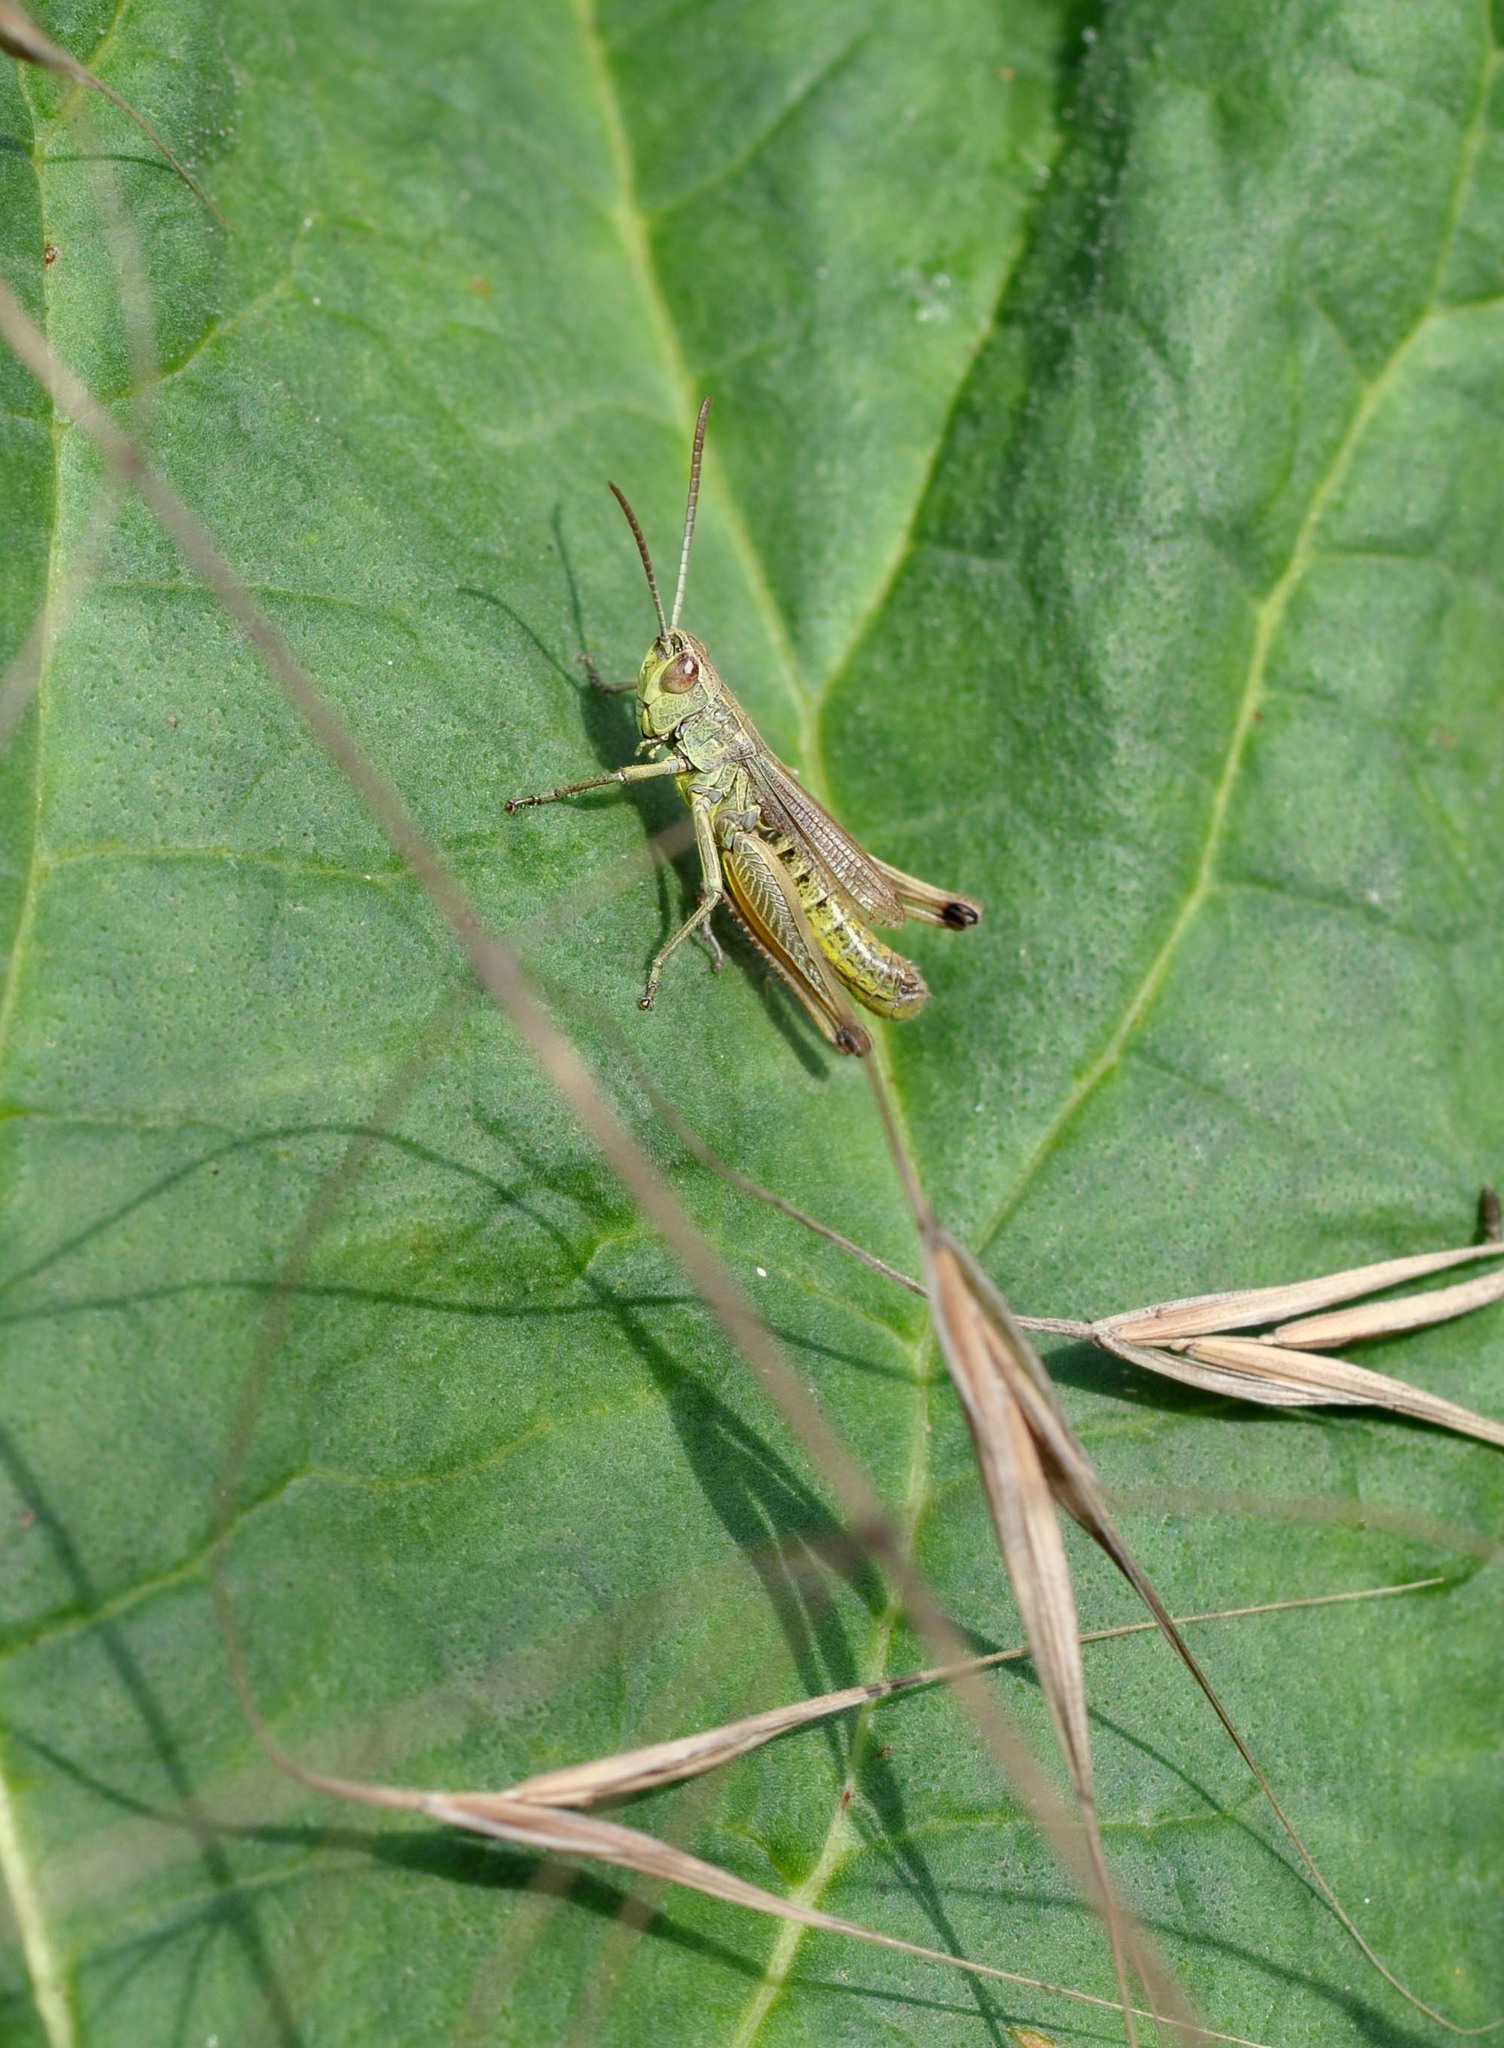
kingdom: Animalia
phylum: Arthropoda
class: Insecta
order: Orthoptera
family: Acrididae
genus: Pseudochorthippus
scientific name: Pseudochorthippus parallelus
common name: Meadow grasshopper
